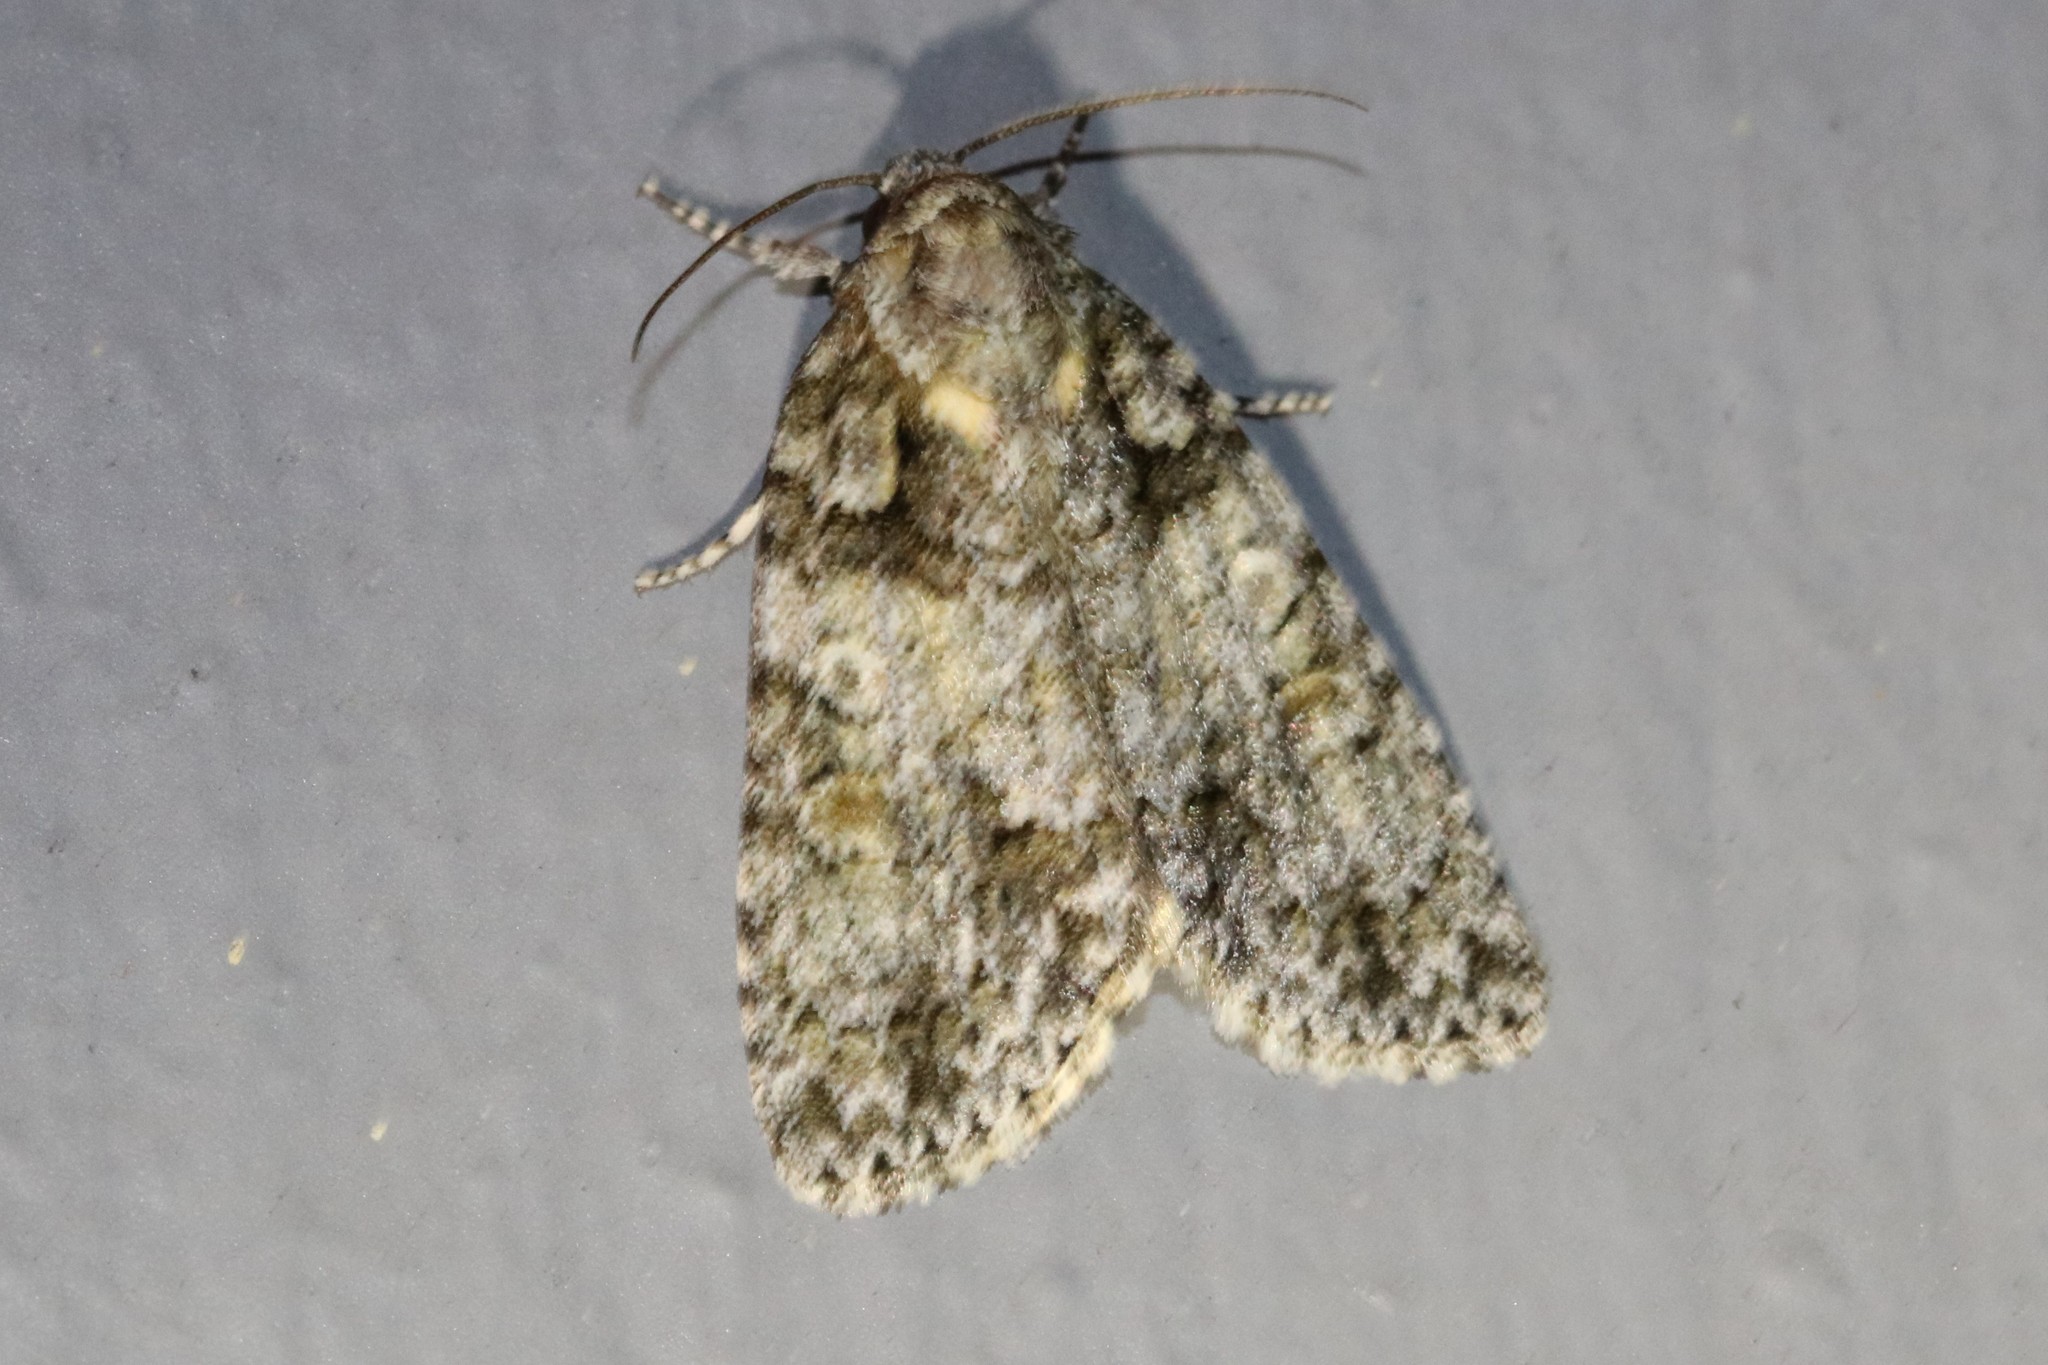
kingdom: Animalia
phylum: Arthropoda
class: Insecta
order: Lepidoptera
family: Noctuidae
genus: Acronicta
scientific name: Acronicta increta
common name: Eclipsed oak dagger
